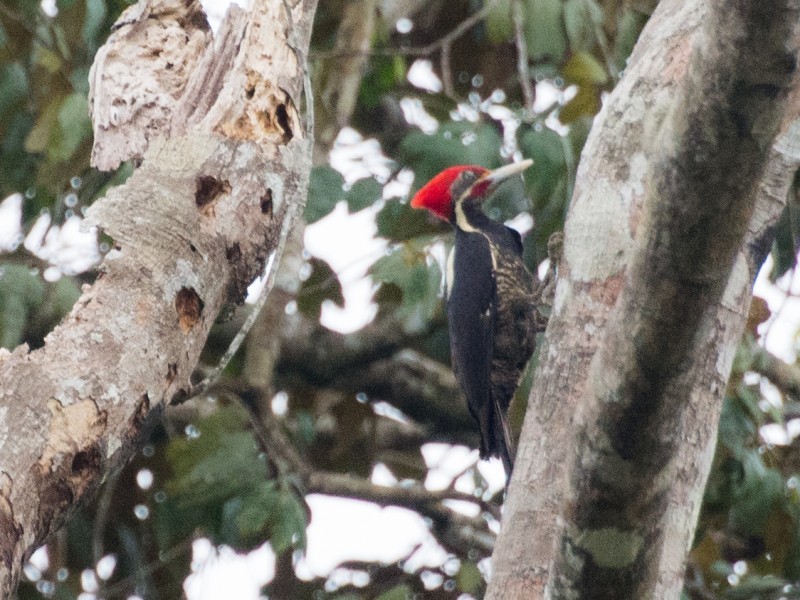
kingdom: Animalia
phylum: Chordata
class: Aves
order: Piciformes
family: Picidae
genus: Dryocopus
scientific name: Dryocopus lineatus
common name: Lineated woodpecker
